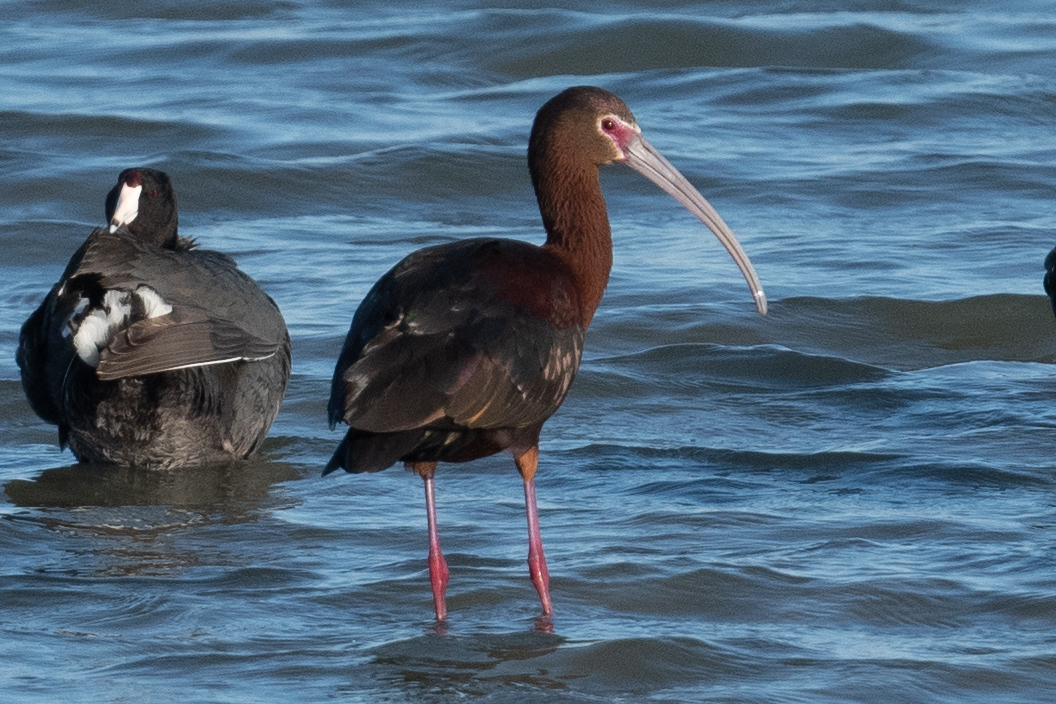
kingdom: Animalia
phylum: Chordata
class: Aves
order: Pelecaniformes
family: Threskiornithidae
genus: Plegadis
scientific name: Plegadis chihi
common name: White-faced ibis
